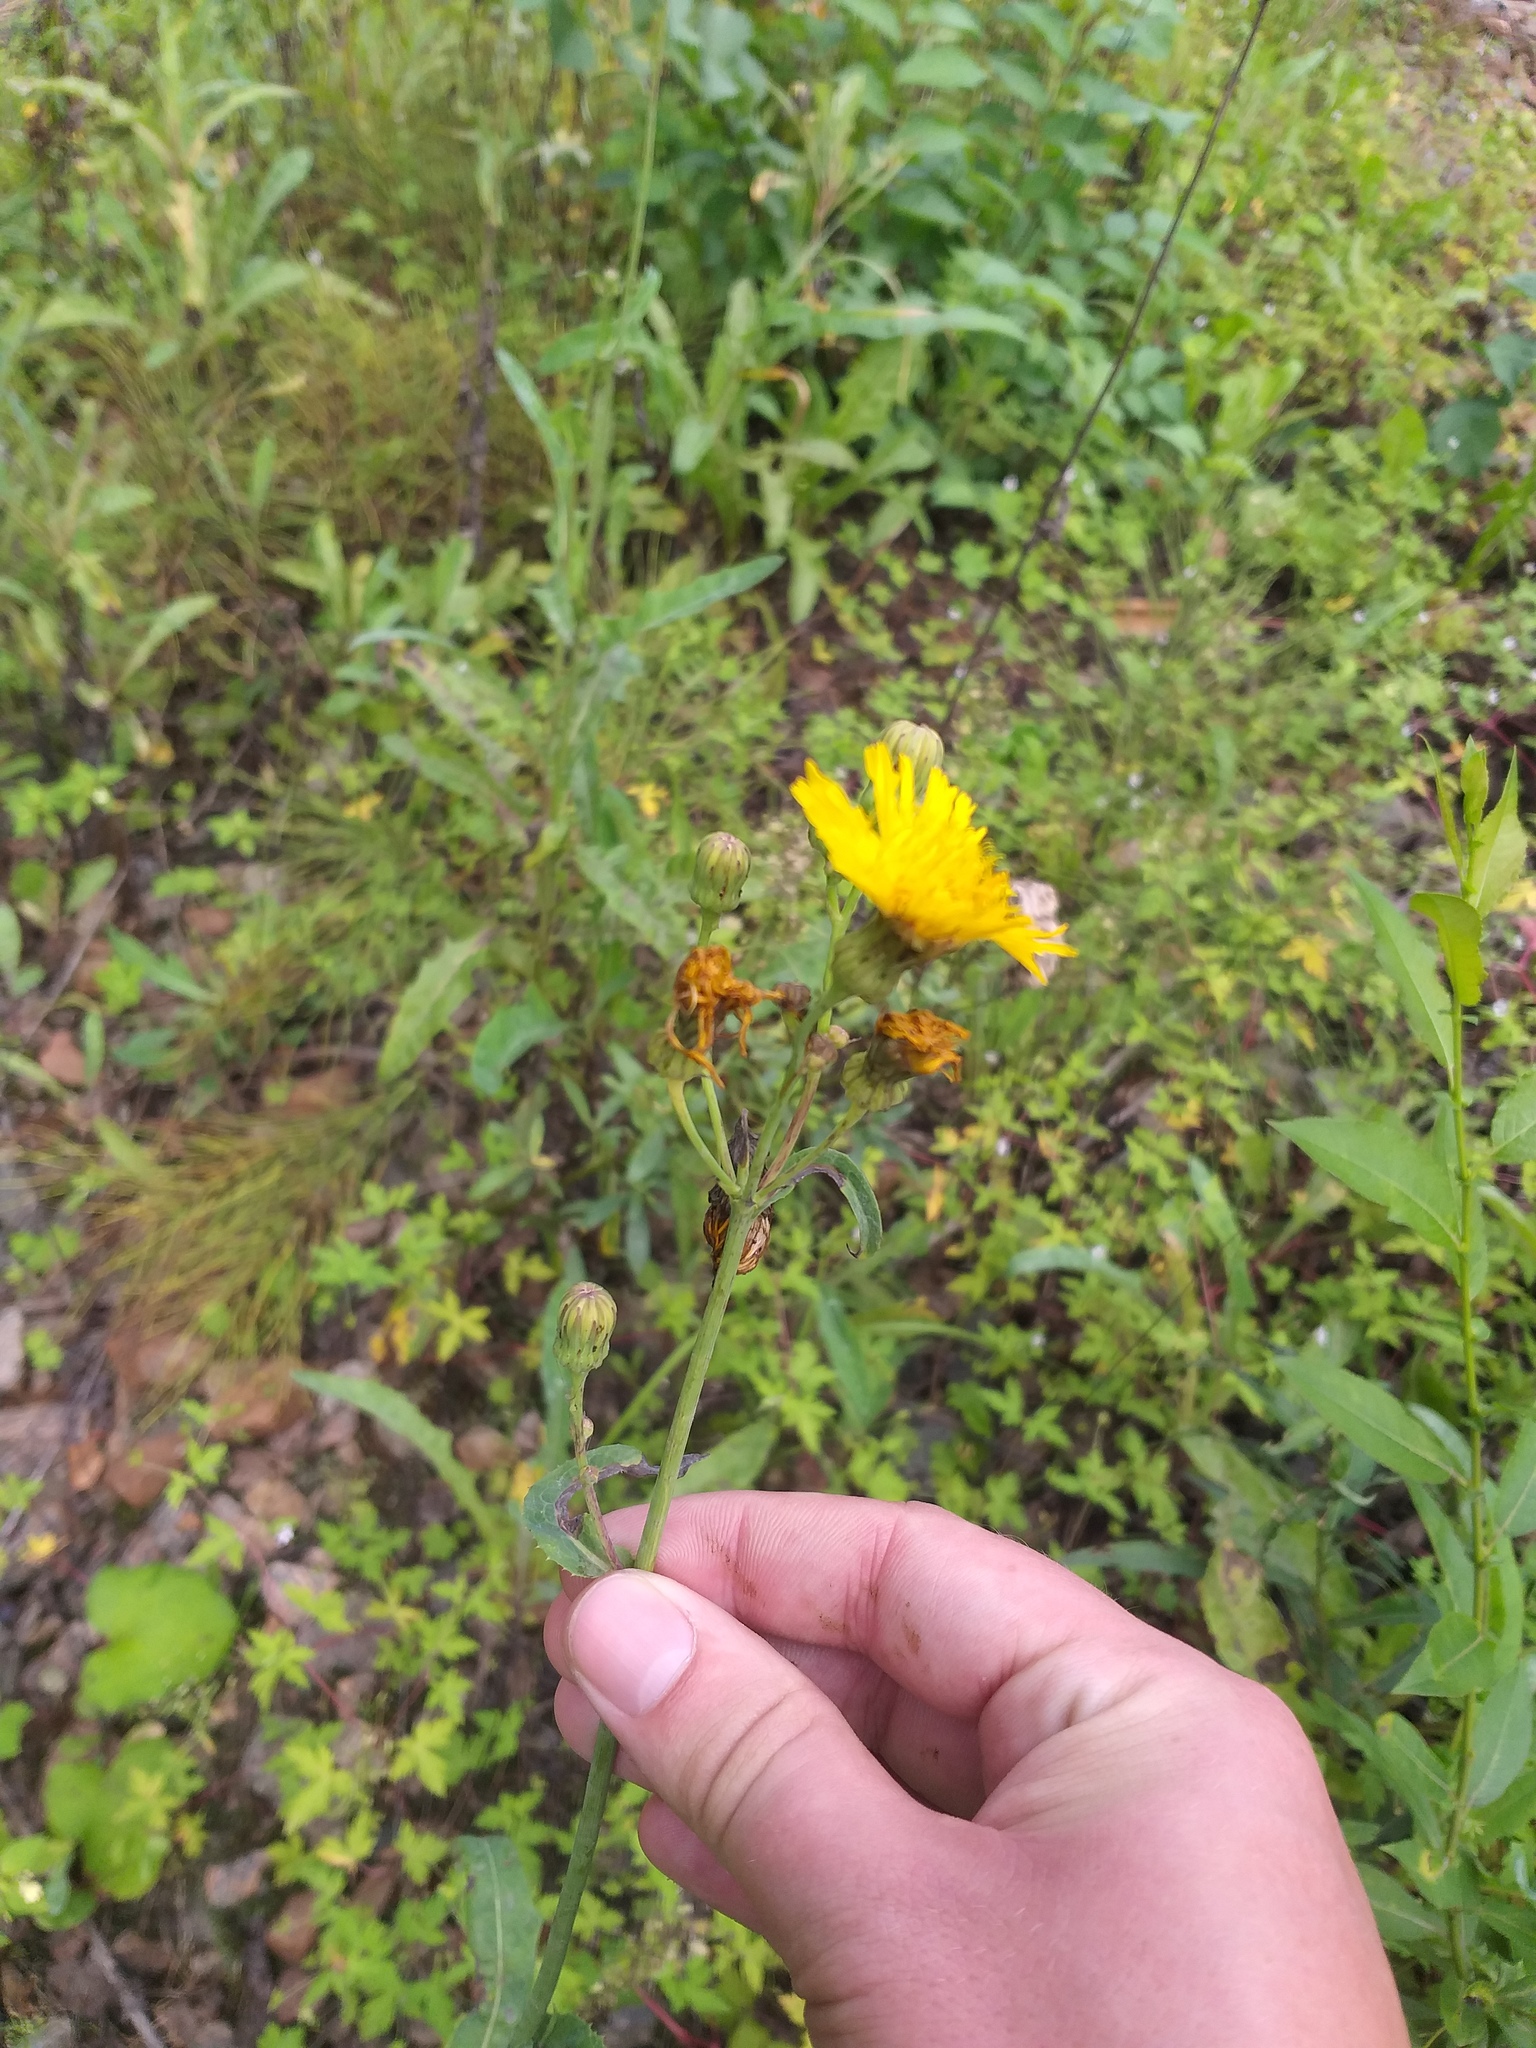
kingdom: Plantae
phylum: Tracheophyta
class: Magnoliopsida
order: Asterales
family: Asteraceae
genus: Sonchus
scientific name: Sonchus arvensis
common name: Perennial sow-thistle
